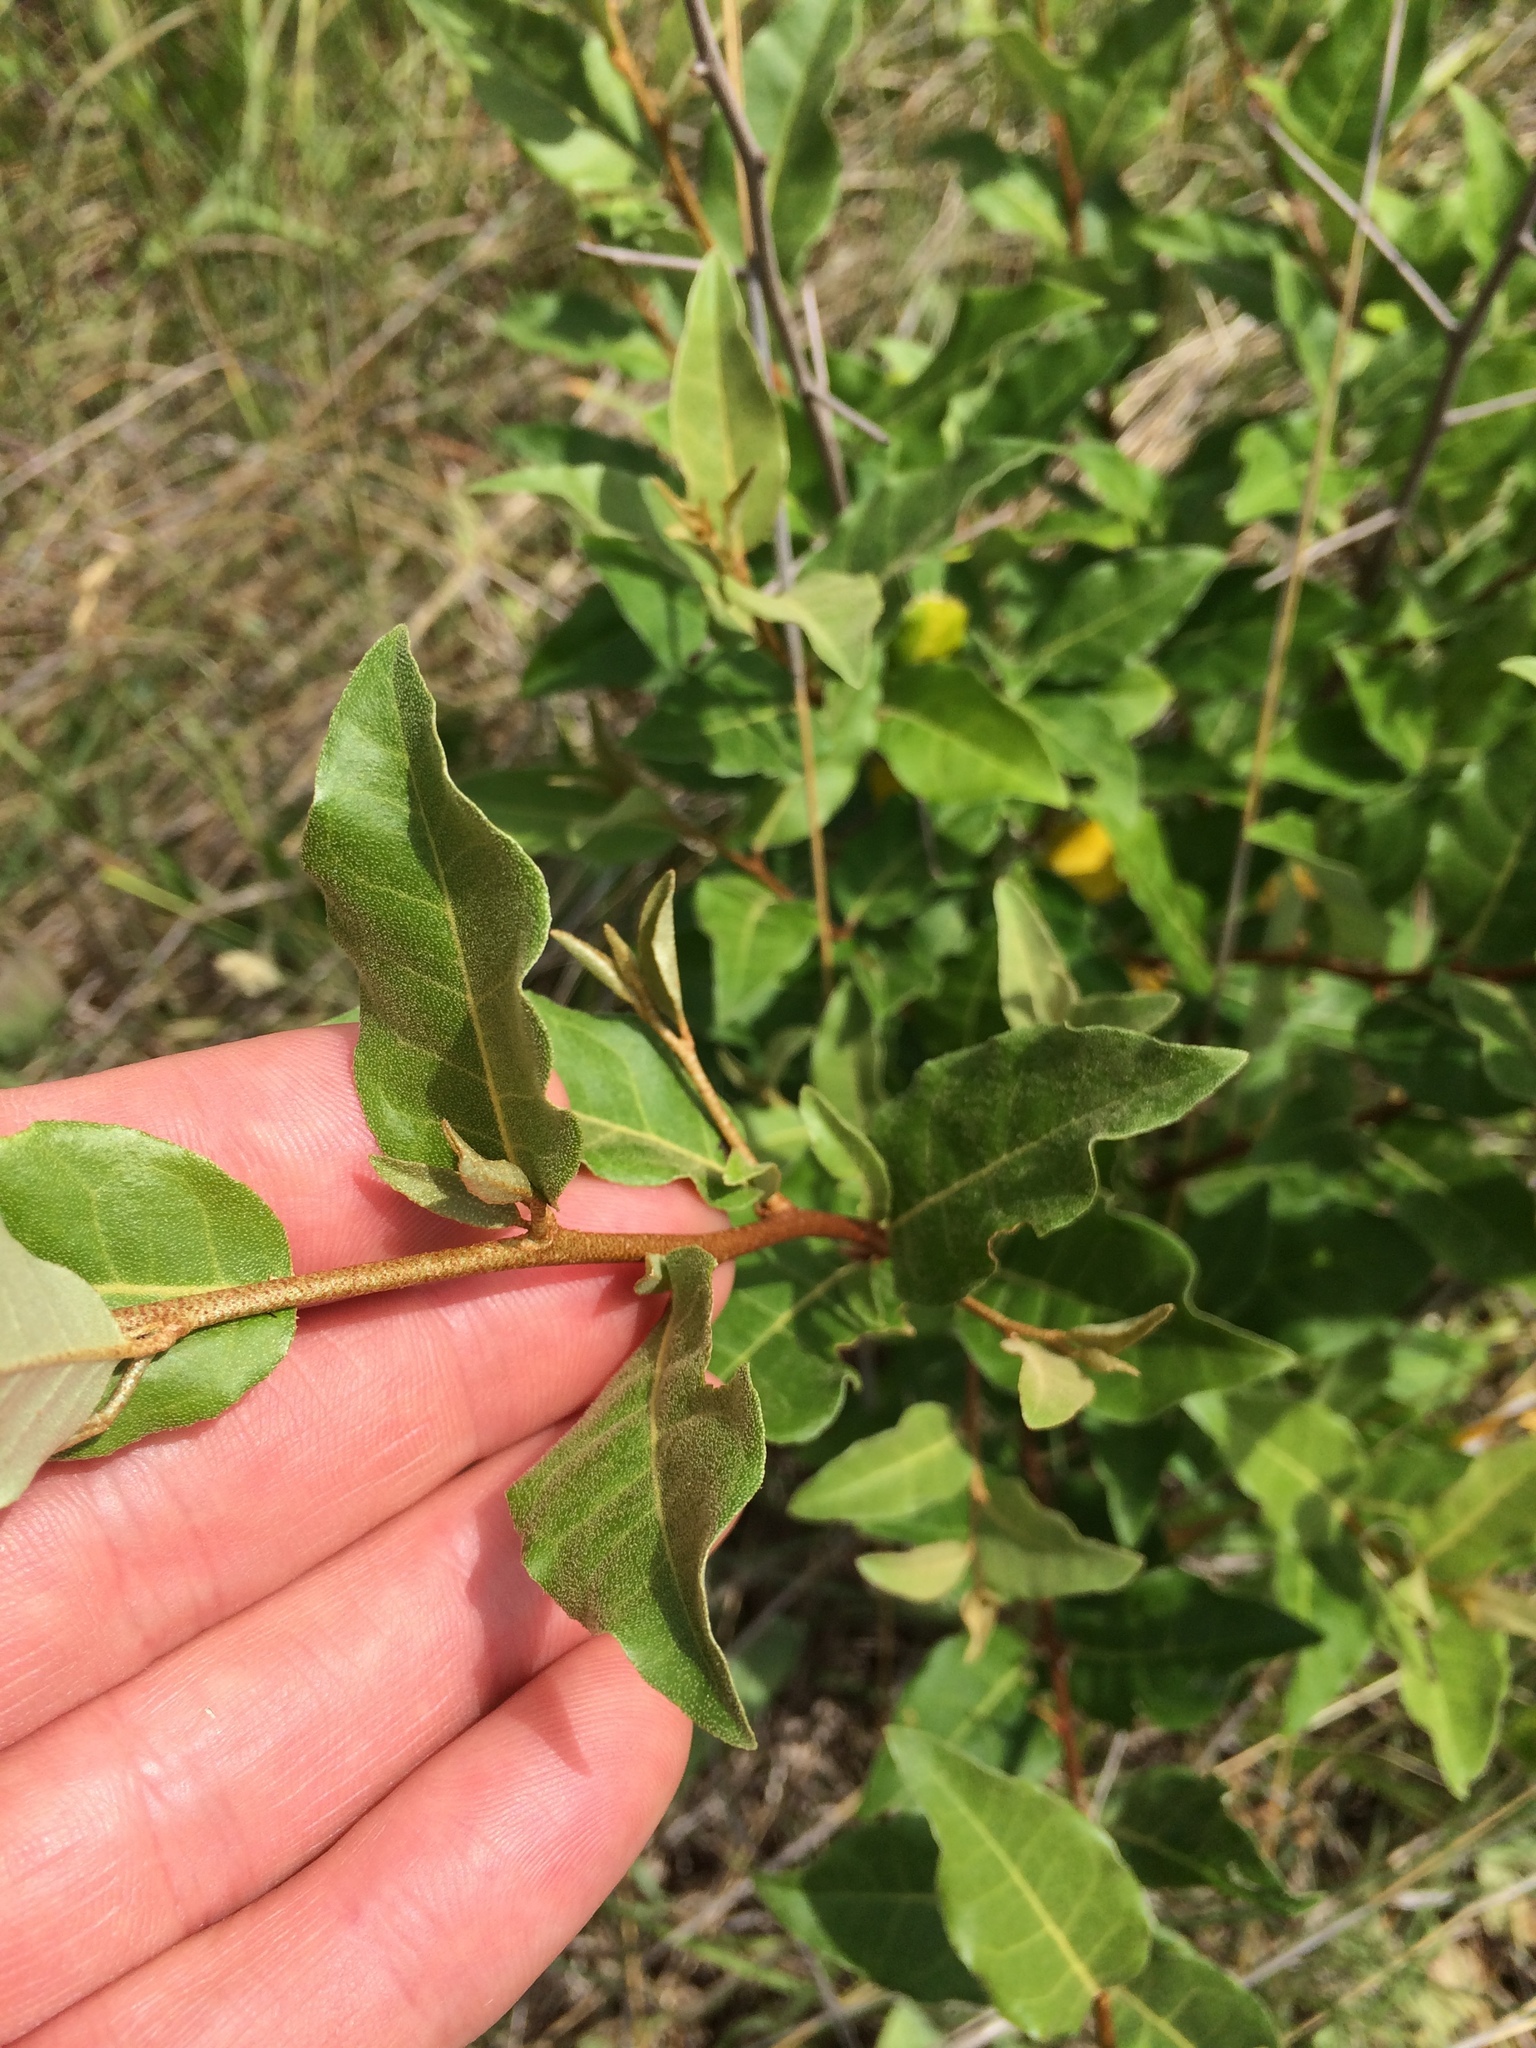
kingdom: Plantae
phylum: Tracheophyta
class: Magnoliopsida
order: Rosales
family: Elaeagnaceae
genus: Elaeagnus
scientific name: Elaeagnus umbellata
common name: Autumn olive
